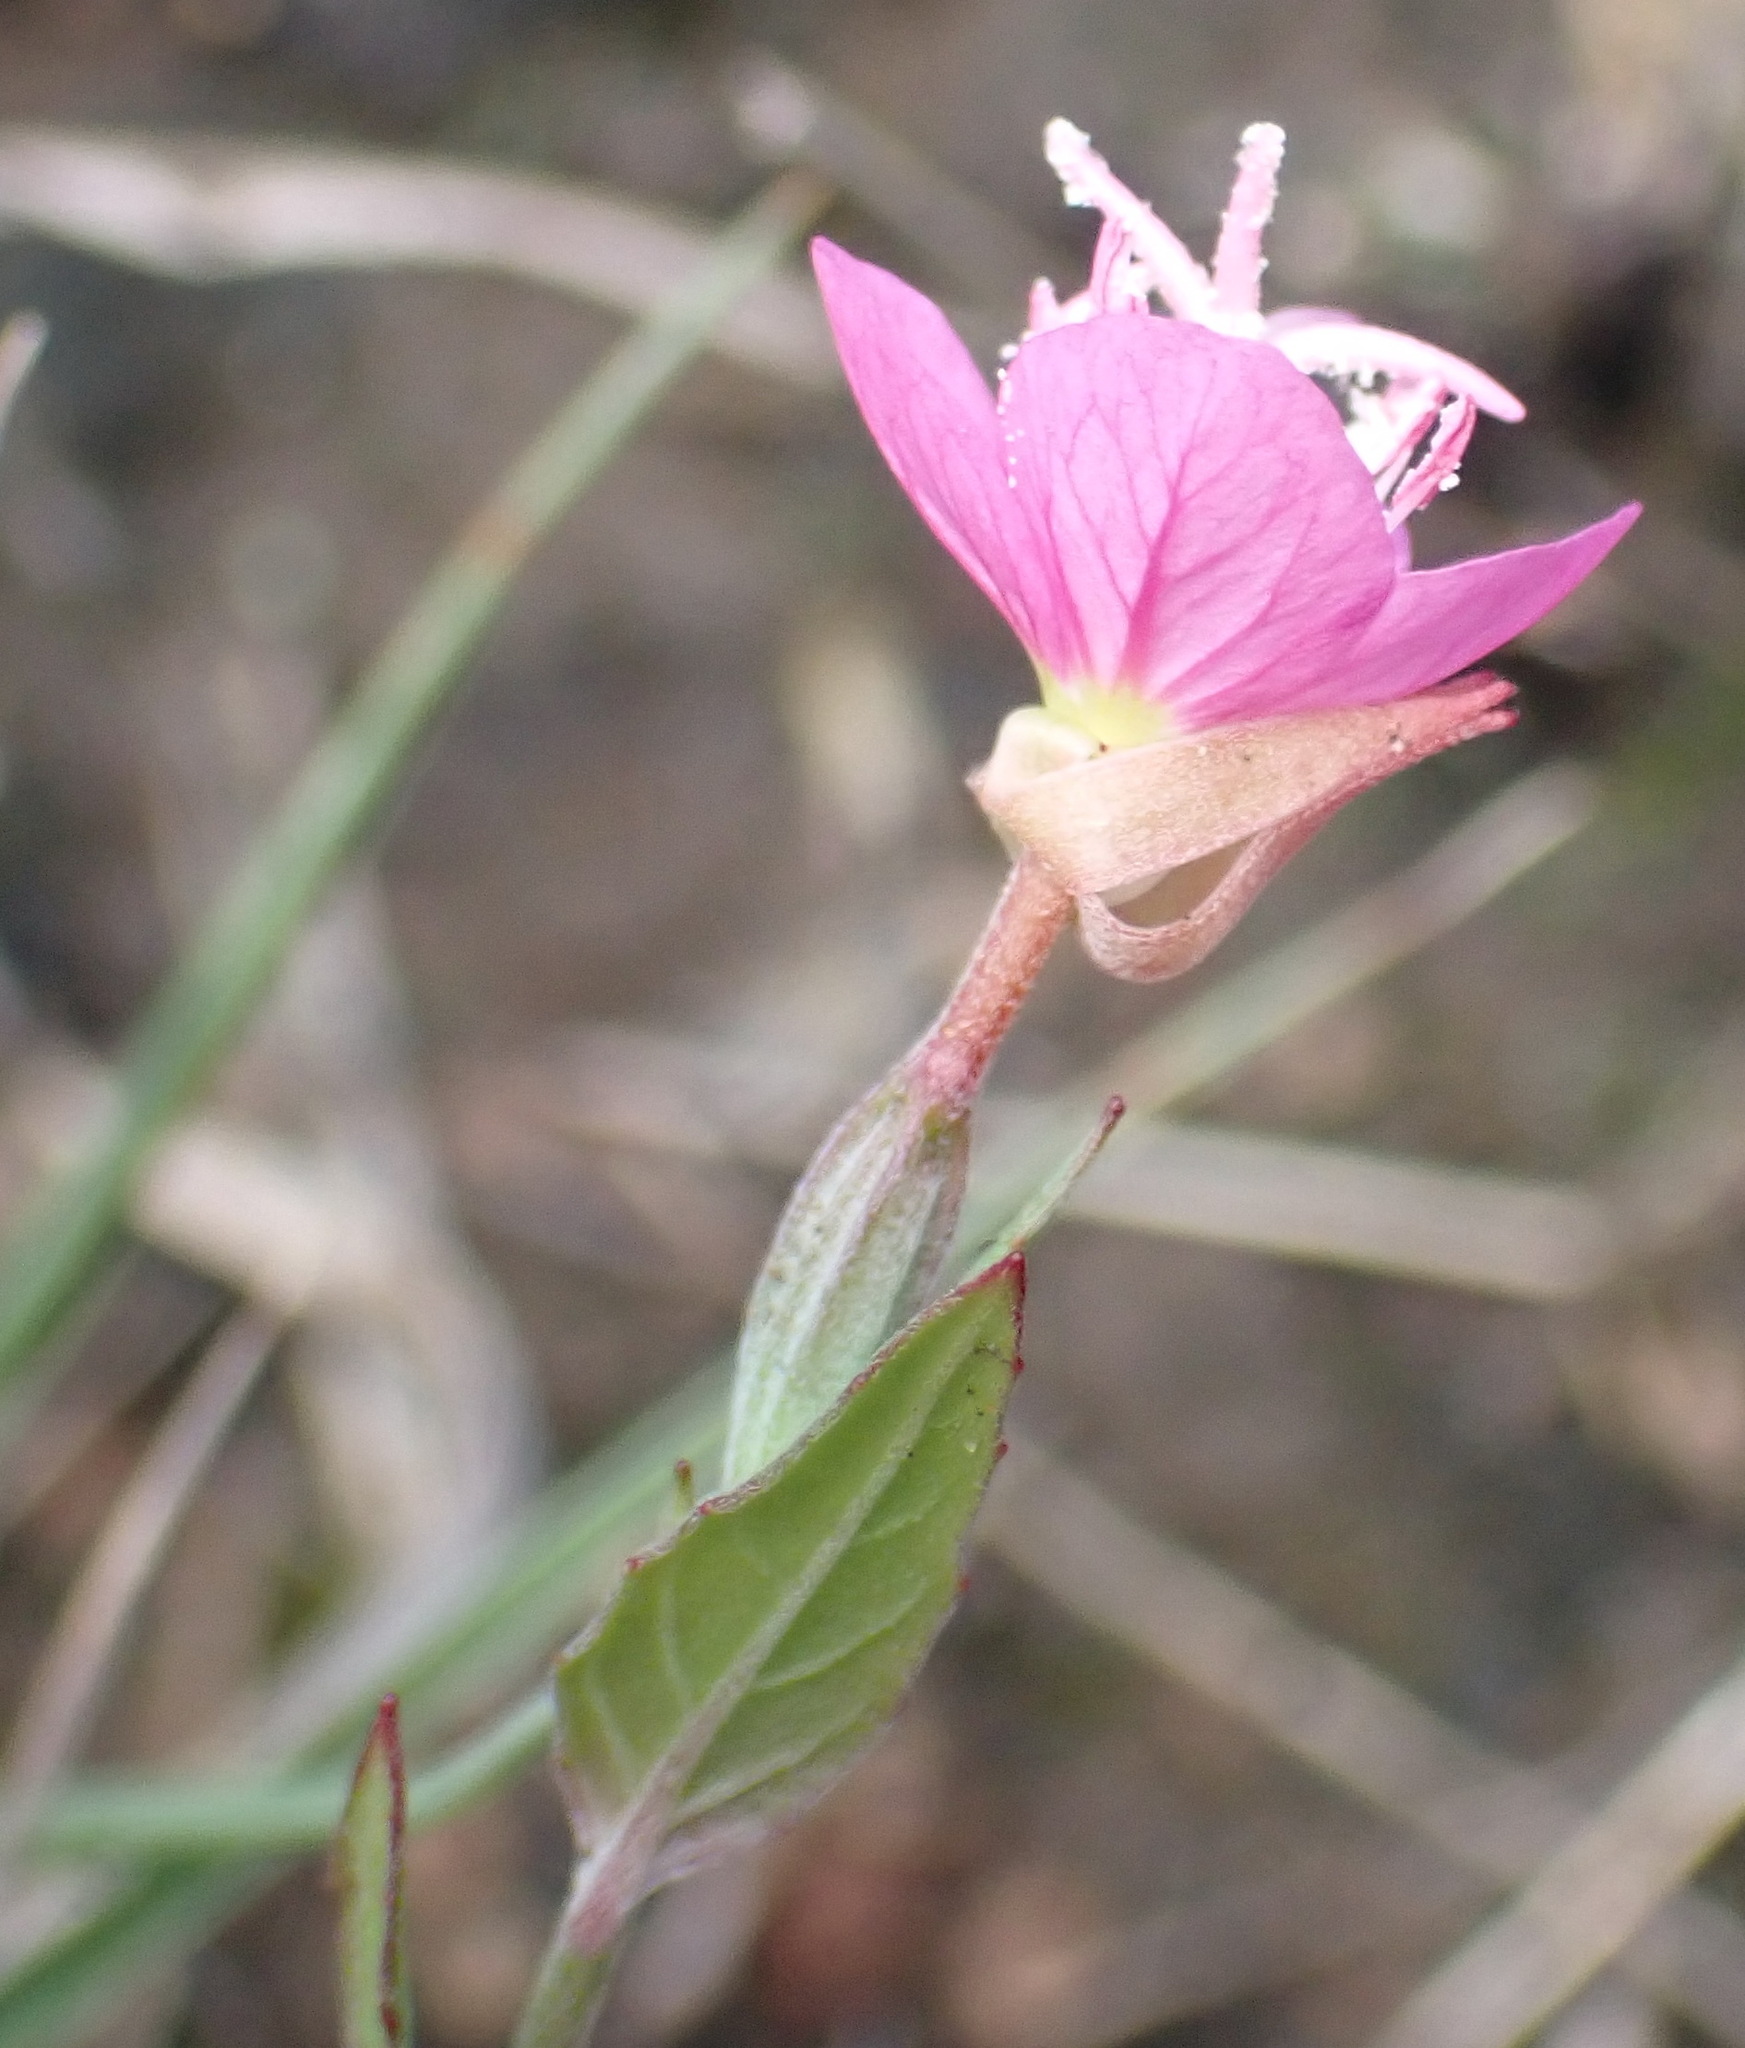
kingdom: Plantae
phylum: Tracheophyta
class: Magnoliopsida
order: Myrtales
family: Onagraceae
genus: Oenothera
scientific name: Oenothera rosea
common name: Rosy evening-primrose
